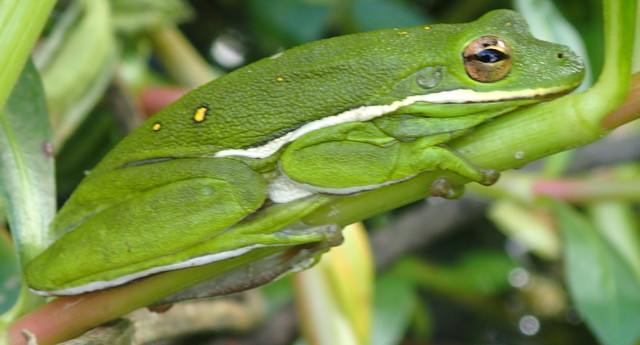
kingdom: Animalia
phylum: Chordata
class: Amphibia
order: Anura
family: Hylidae
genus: Dryophytes
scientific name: Dryophytes cinereus
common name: Green treefrog
